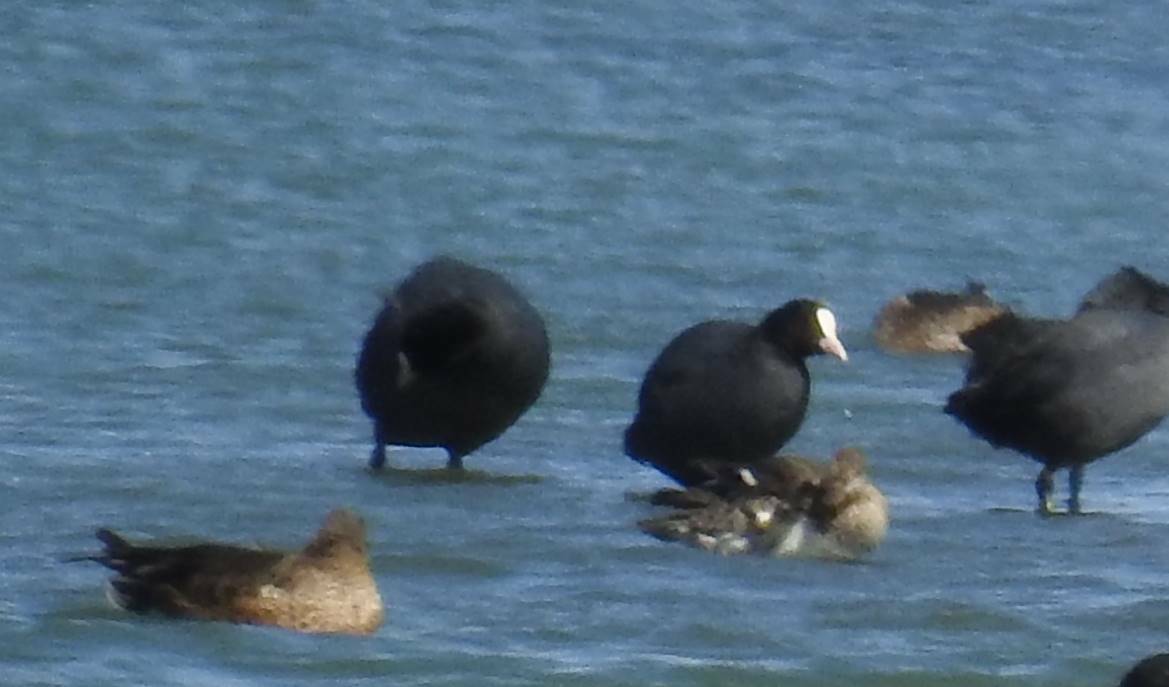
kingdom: Animalia
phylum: Chordata
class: Aves
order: Gruiformes
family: Rallidae
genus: Fulica
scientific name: Fulica atra
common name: Eurasian coot
